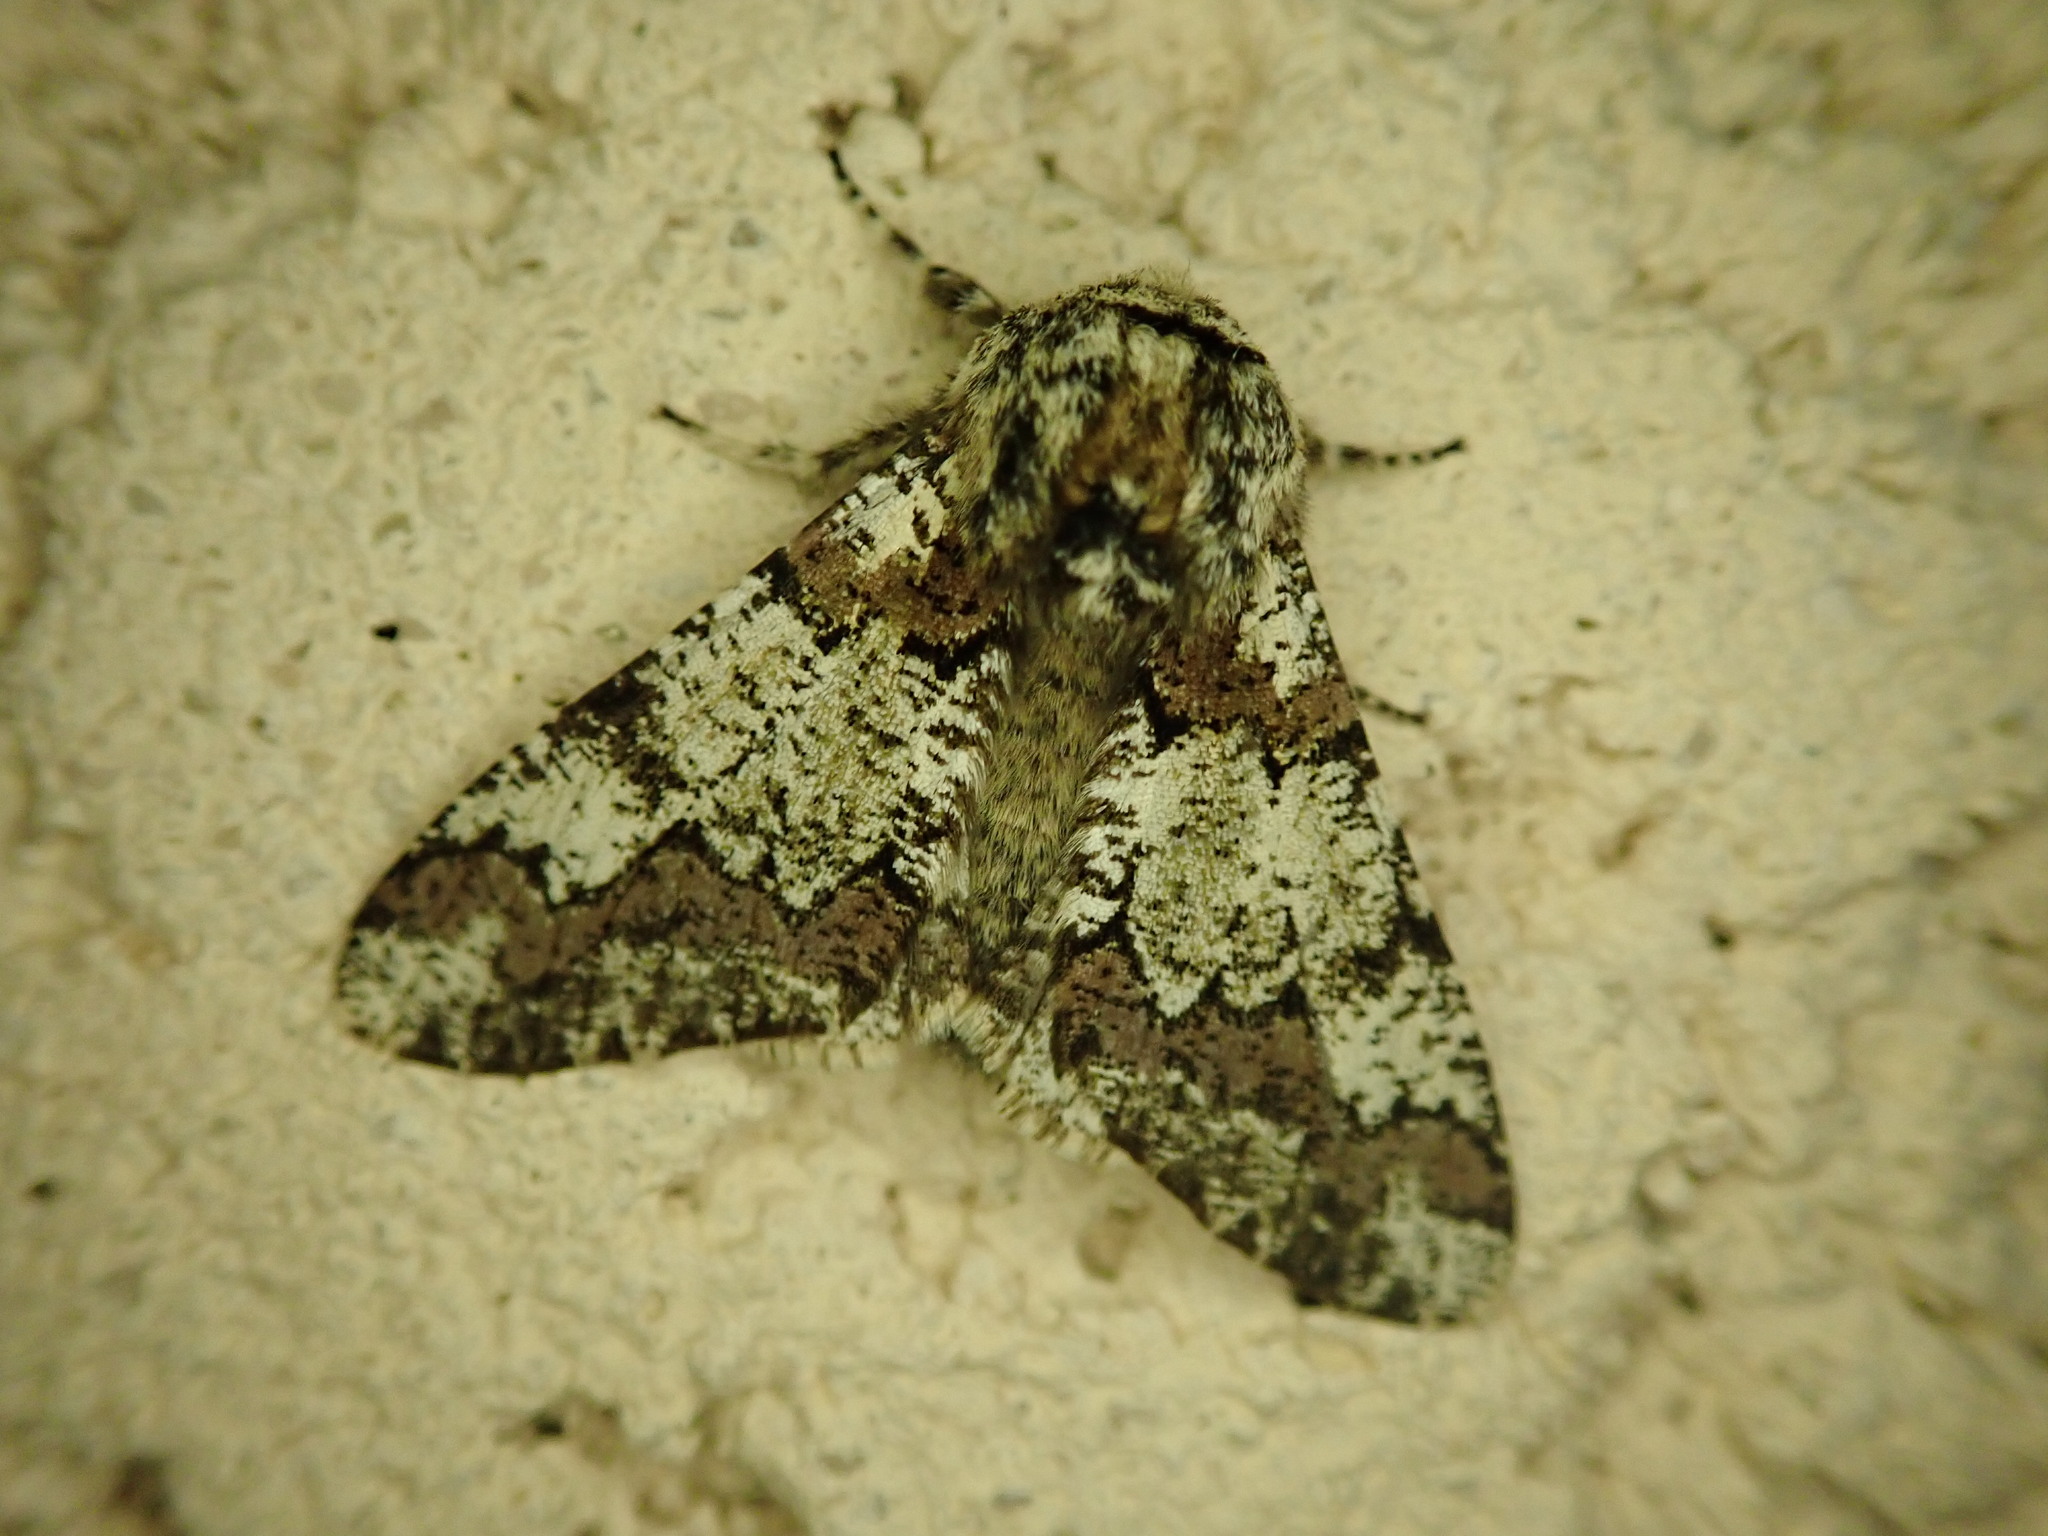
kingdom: Animalia
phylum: Arthropoda
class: Insecta
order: Lepidoptera
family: Geometridae
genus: Biston
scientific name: Biston strataria
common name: Oak beauty
